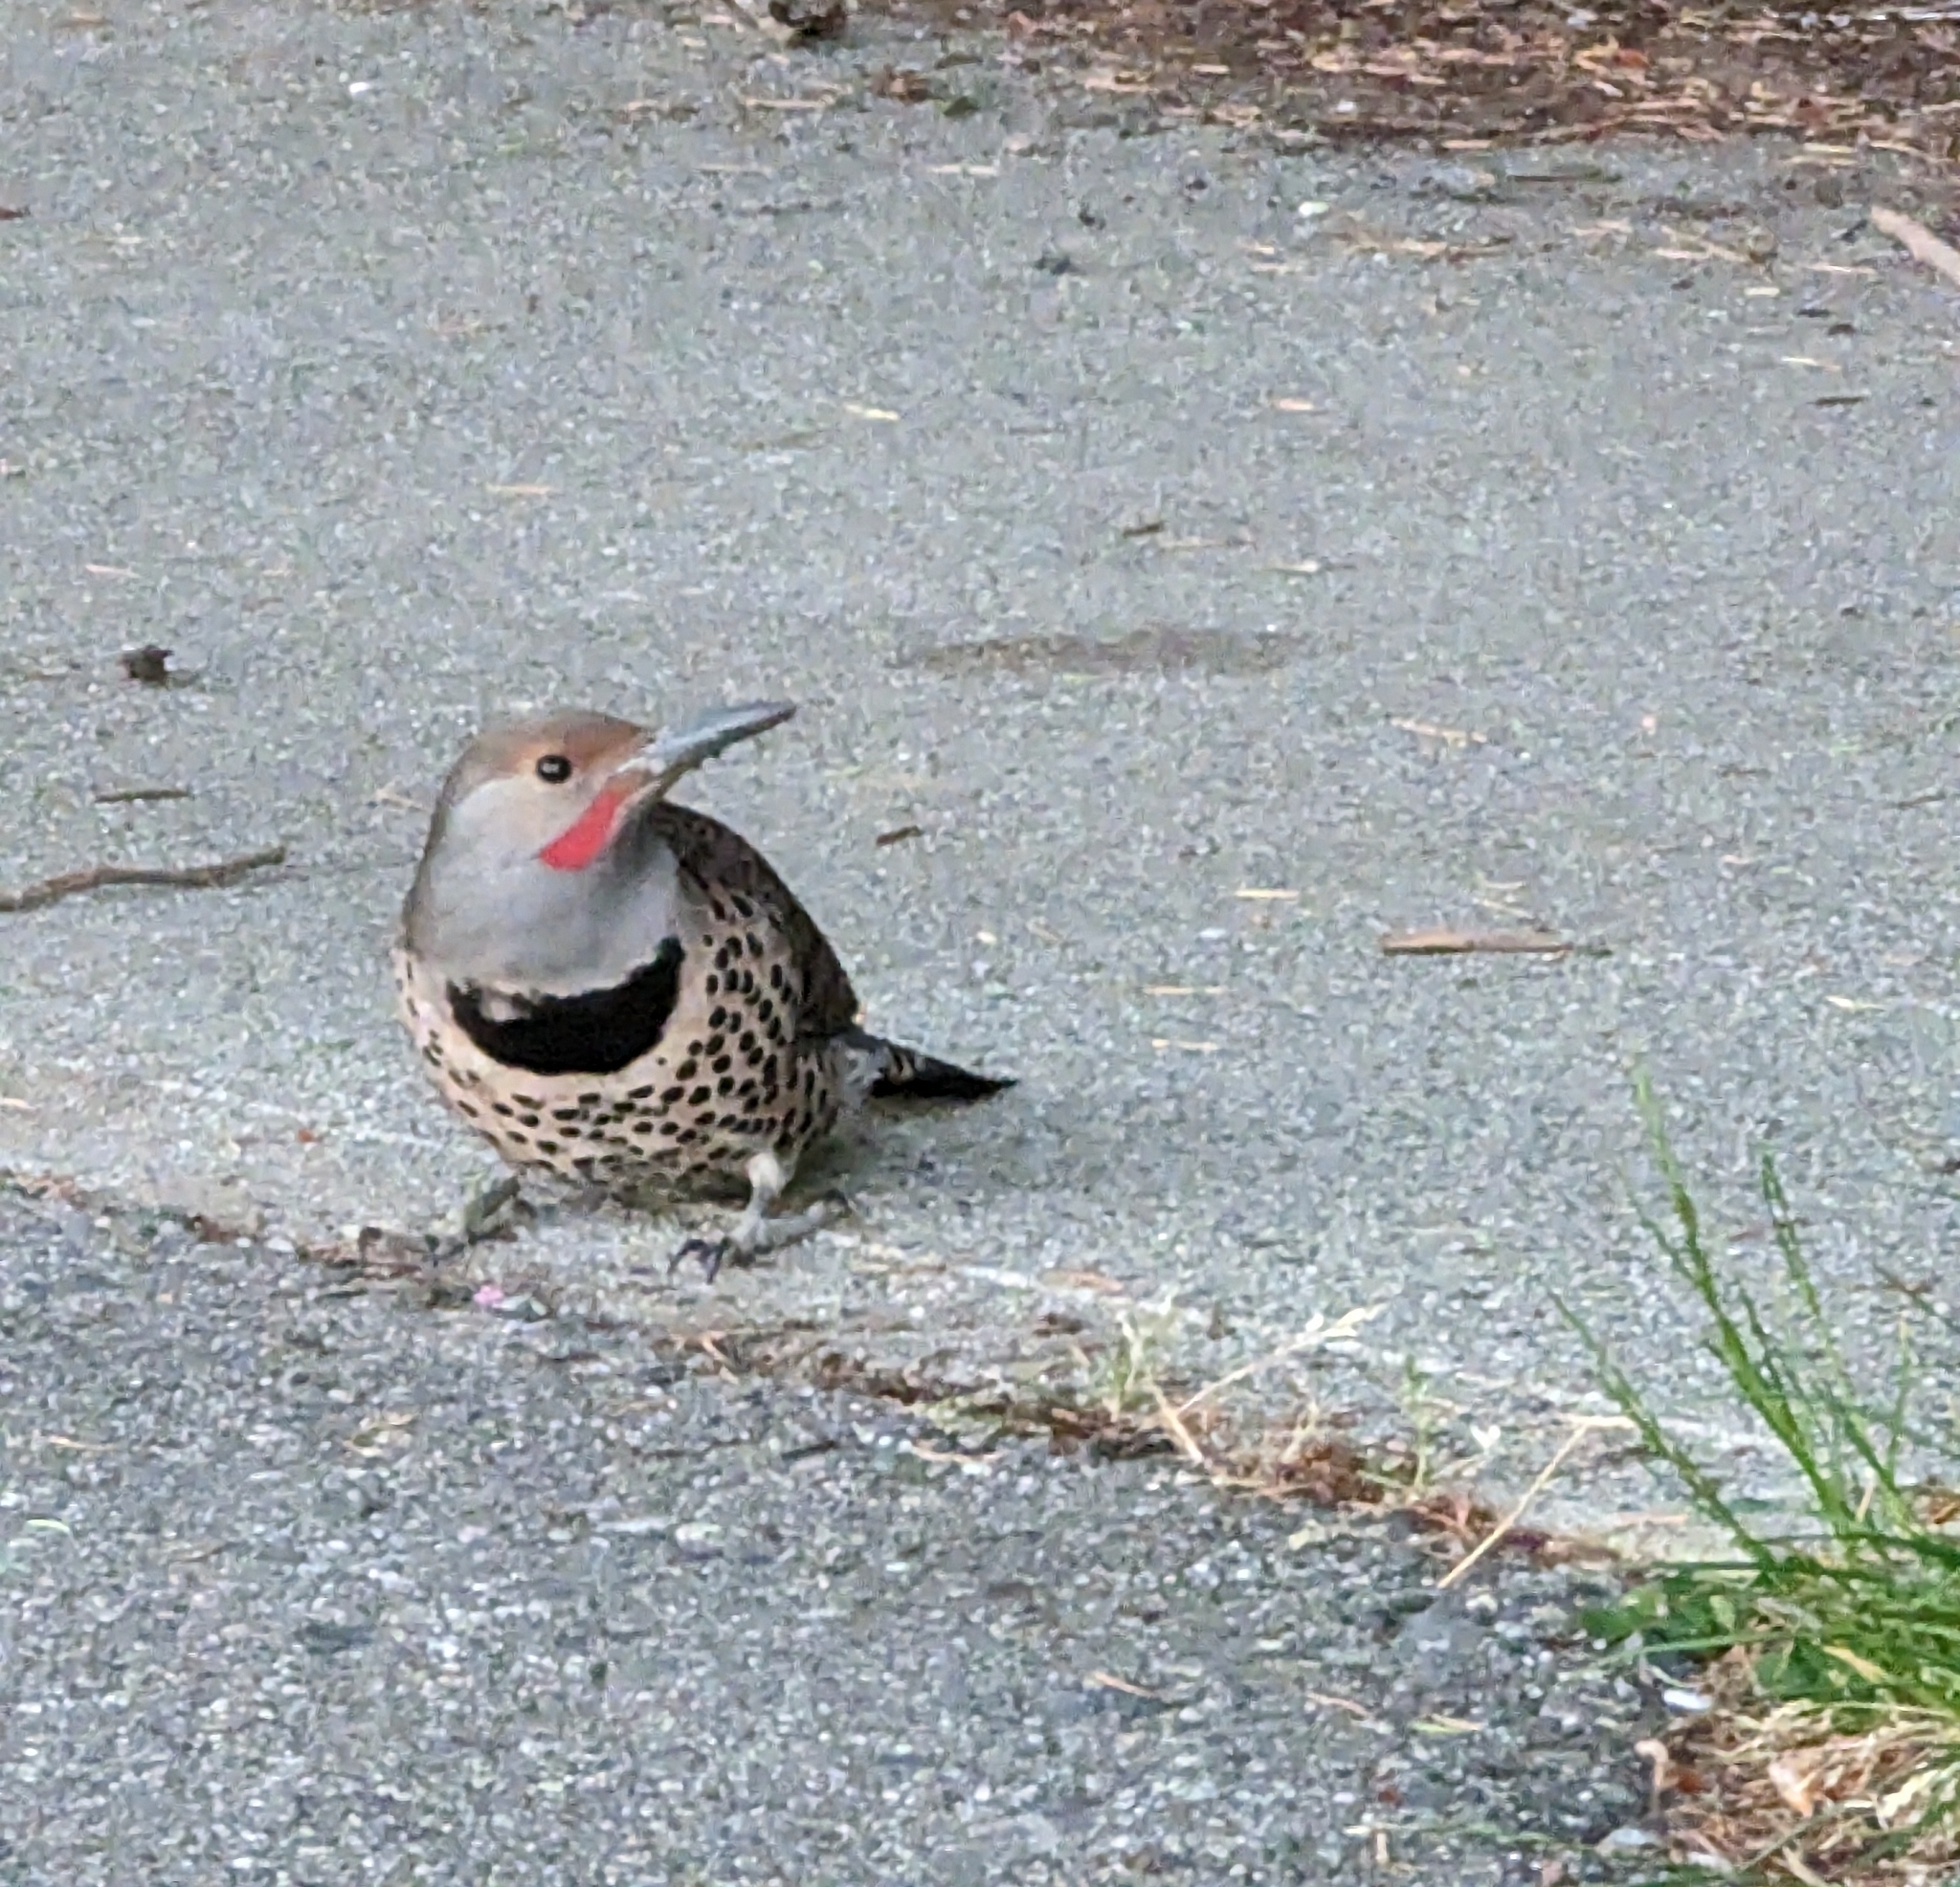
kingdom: Animalia
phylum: Chordata
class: Aves
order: Piciformes
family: Picidae
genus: Colaptes
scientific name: Colaptes auratus
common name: Northern flicker
